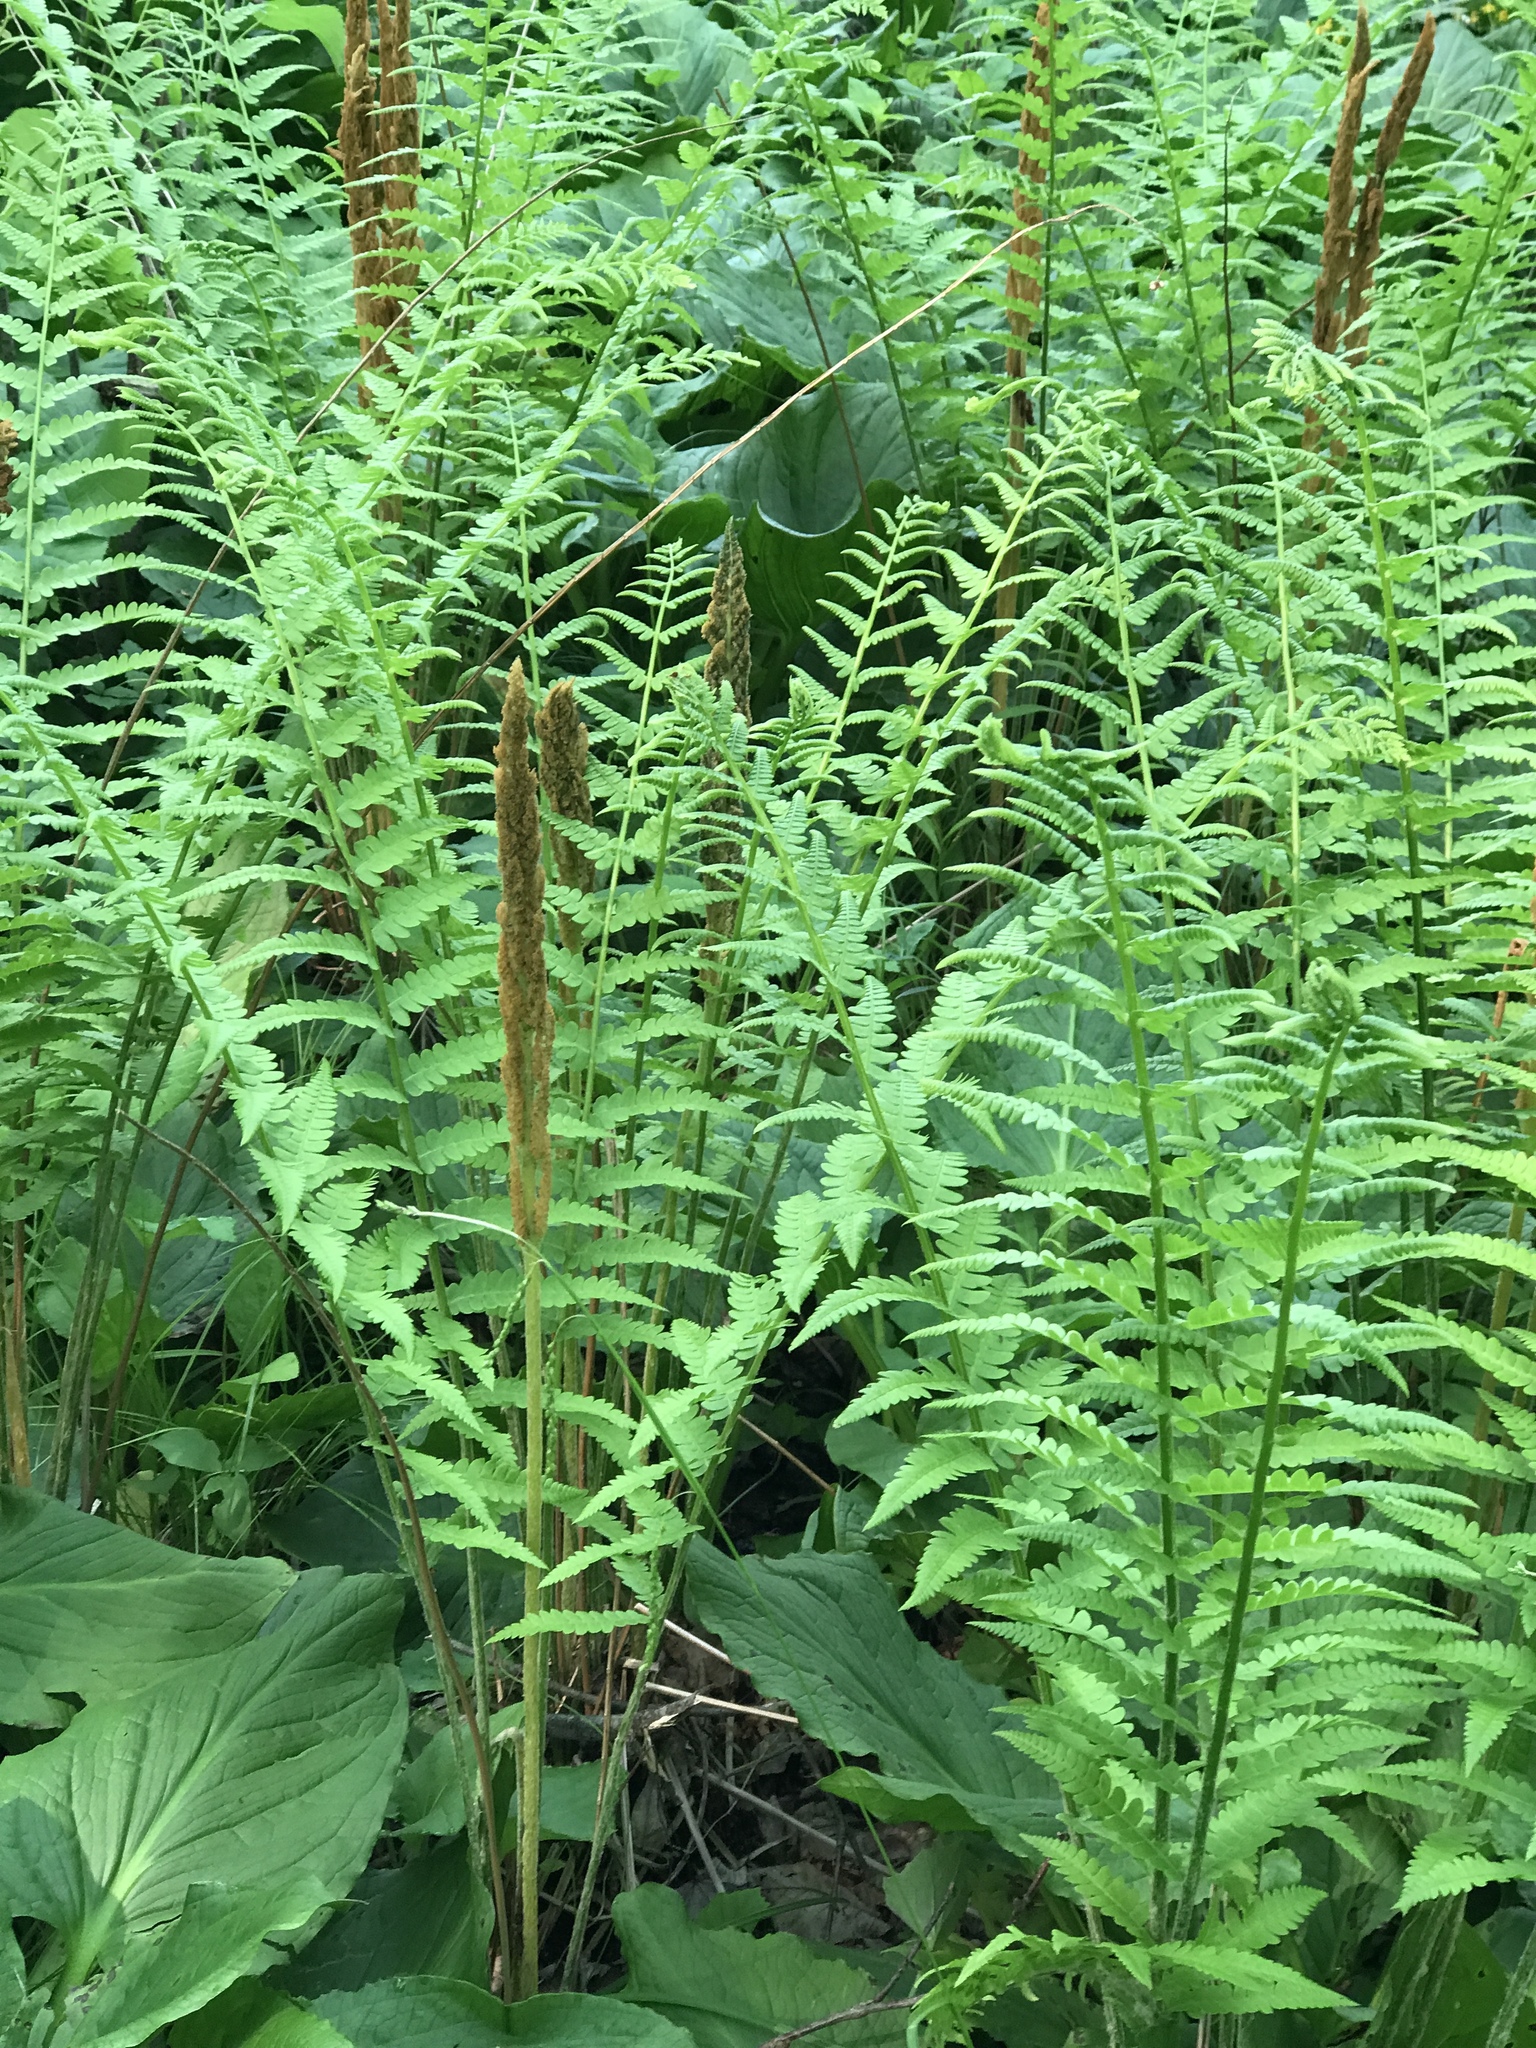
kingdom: Plantae
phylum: Tracheophyta
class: Polypodiopsida
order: Osmundales
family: Osmundaceae
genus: Osmundastrum
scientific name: Osmundastrum cinnamomeum
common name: Cinnamon fern
